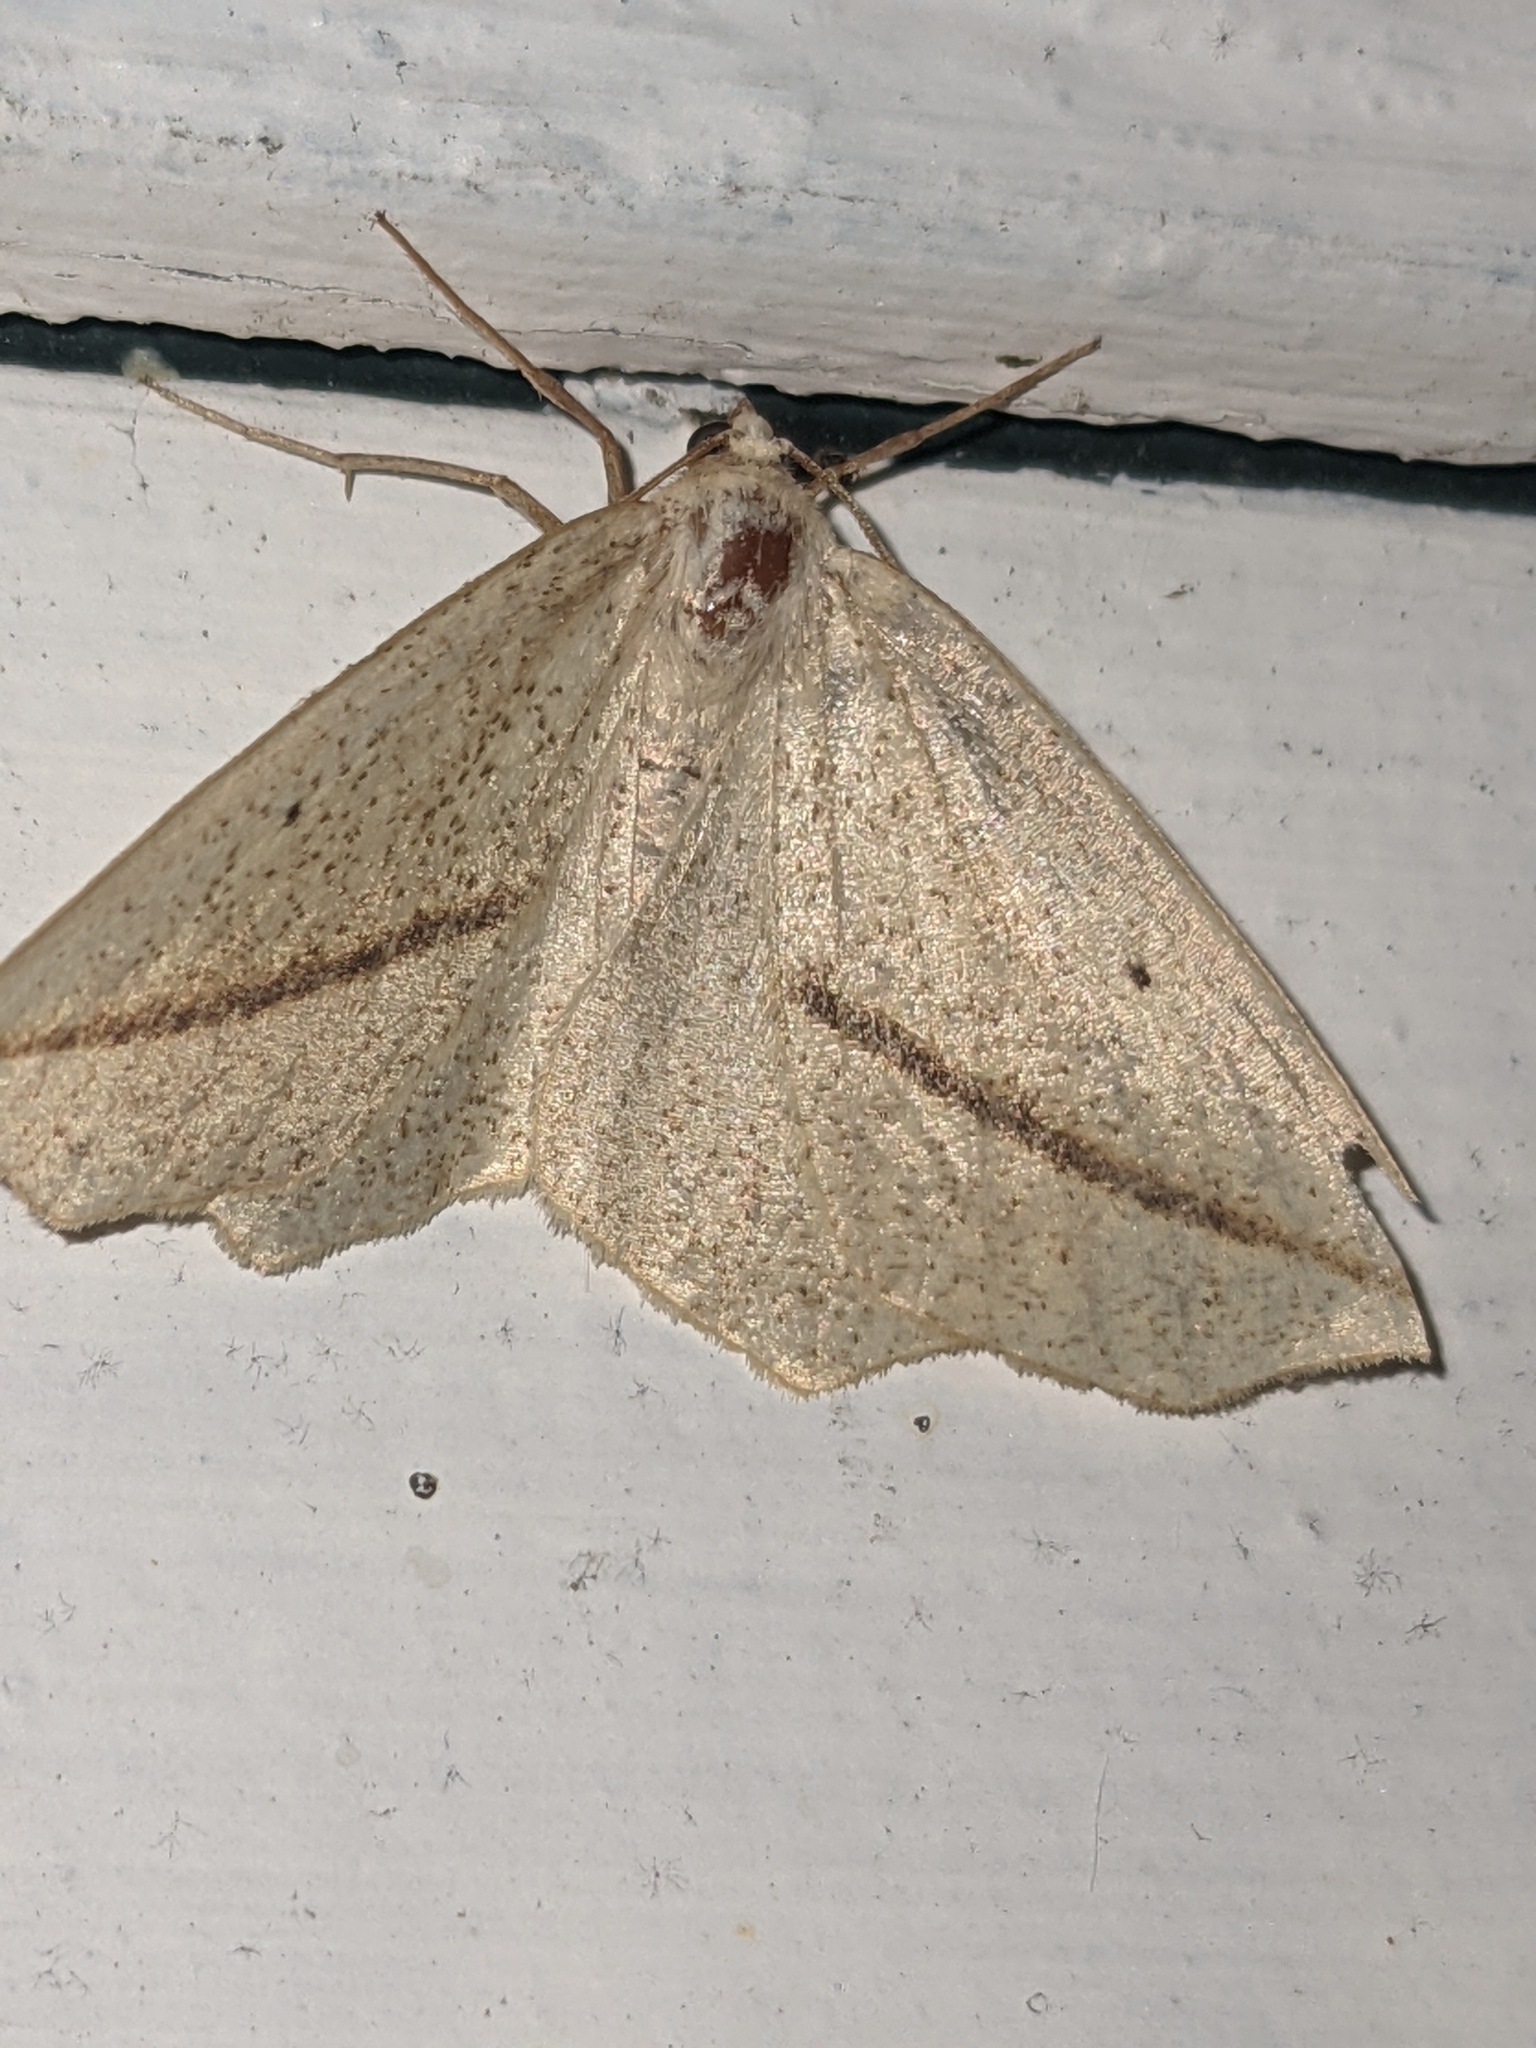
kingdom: Animalia
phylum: Arthropoda
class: Insecta
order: Lepidoptera
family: Geometridae
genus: Tetracis
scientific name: Tetracis crocallata
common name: Yellow slant-line
